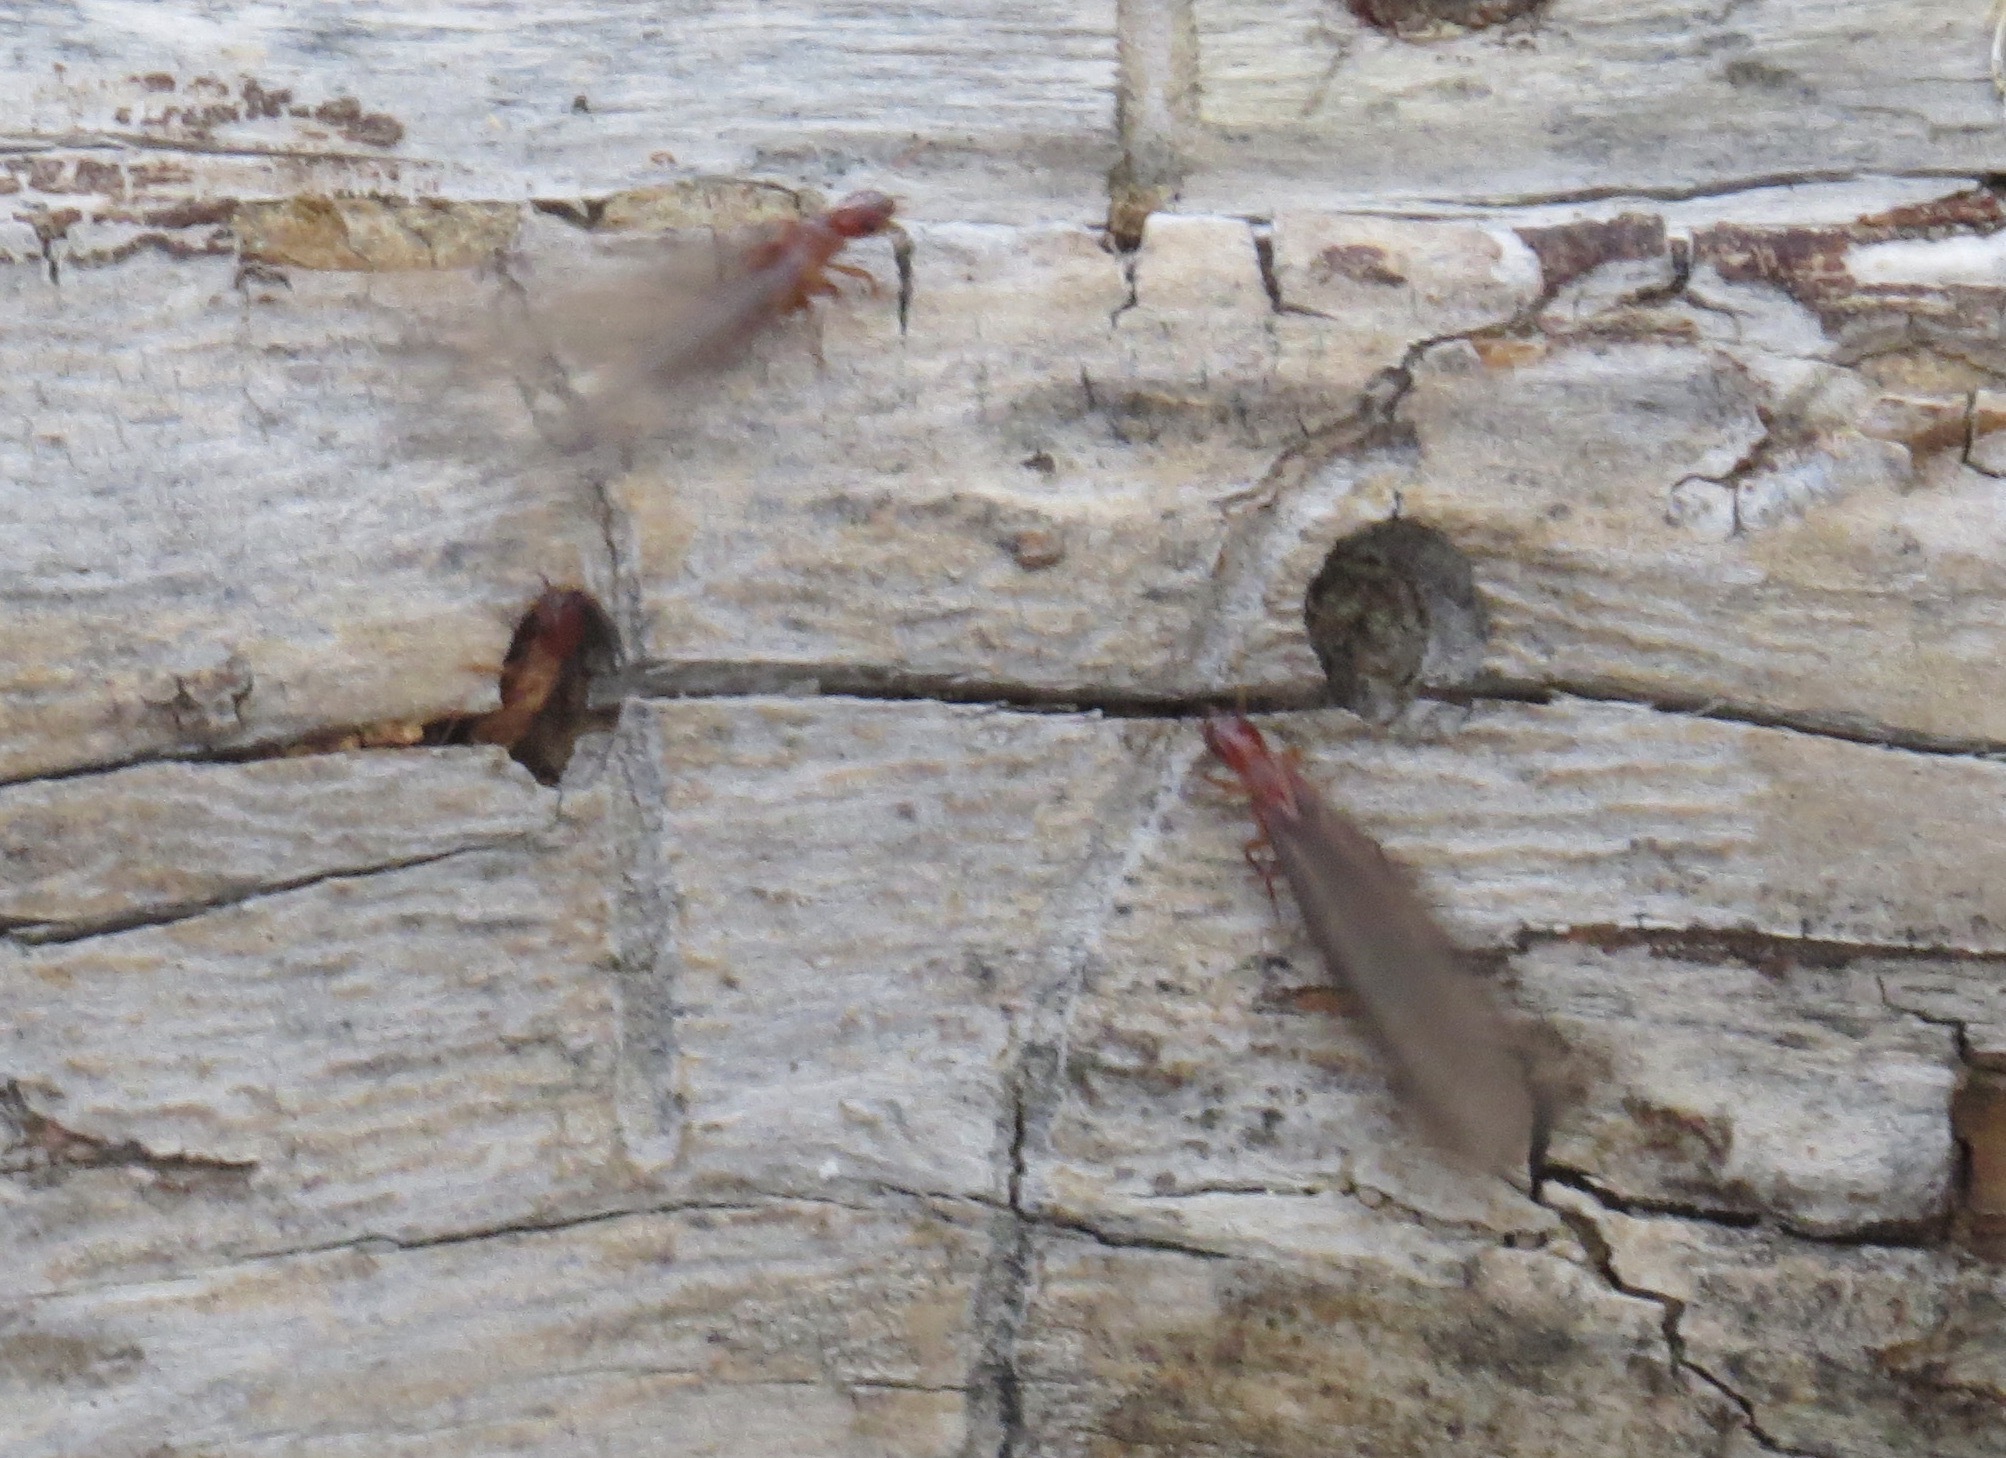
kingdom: Animalia
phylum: Arthropoda
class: Insecta
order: Blattodea
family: Archotermopsidae
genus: Zootermopsis
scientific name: Zootermopsis nevadensis
